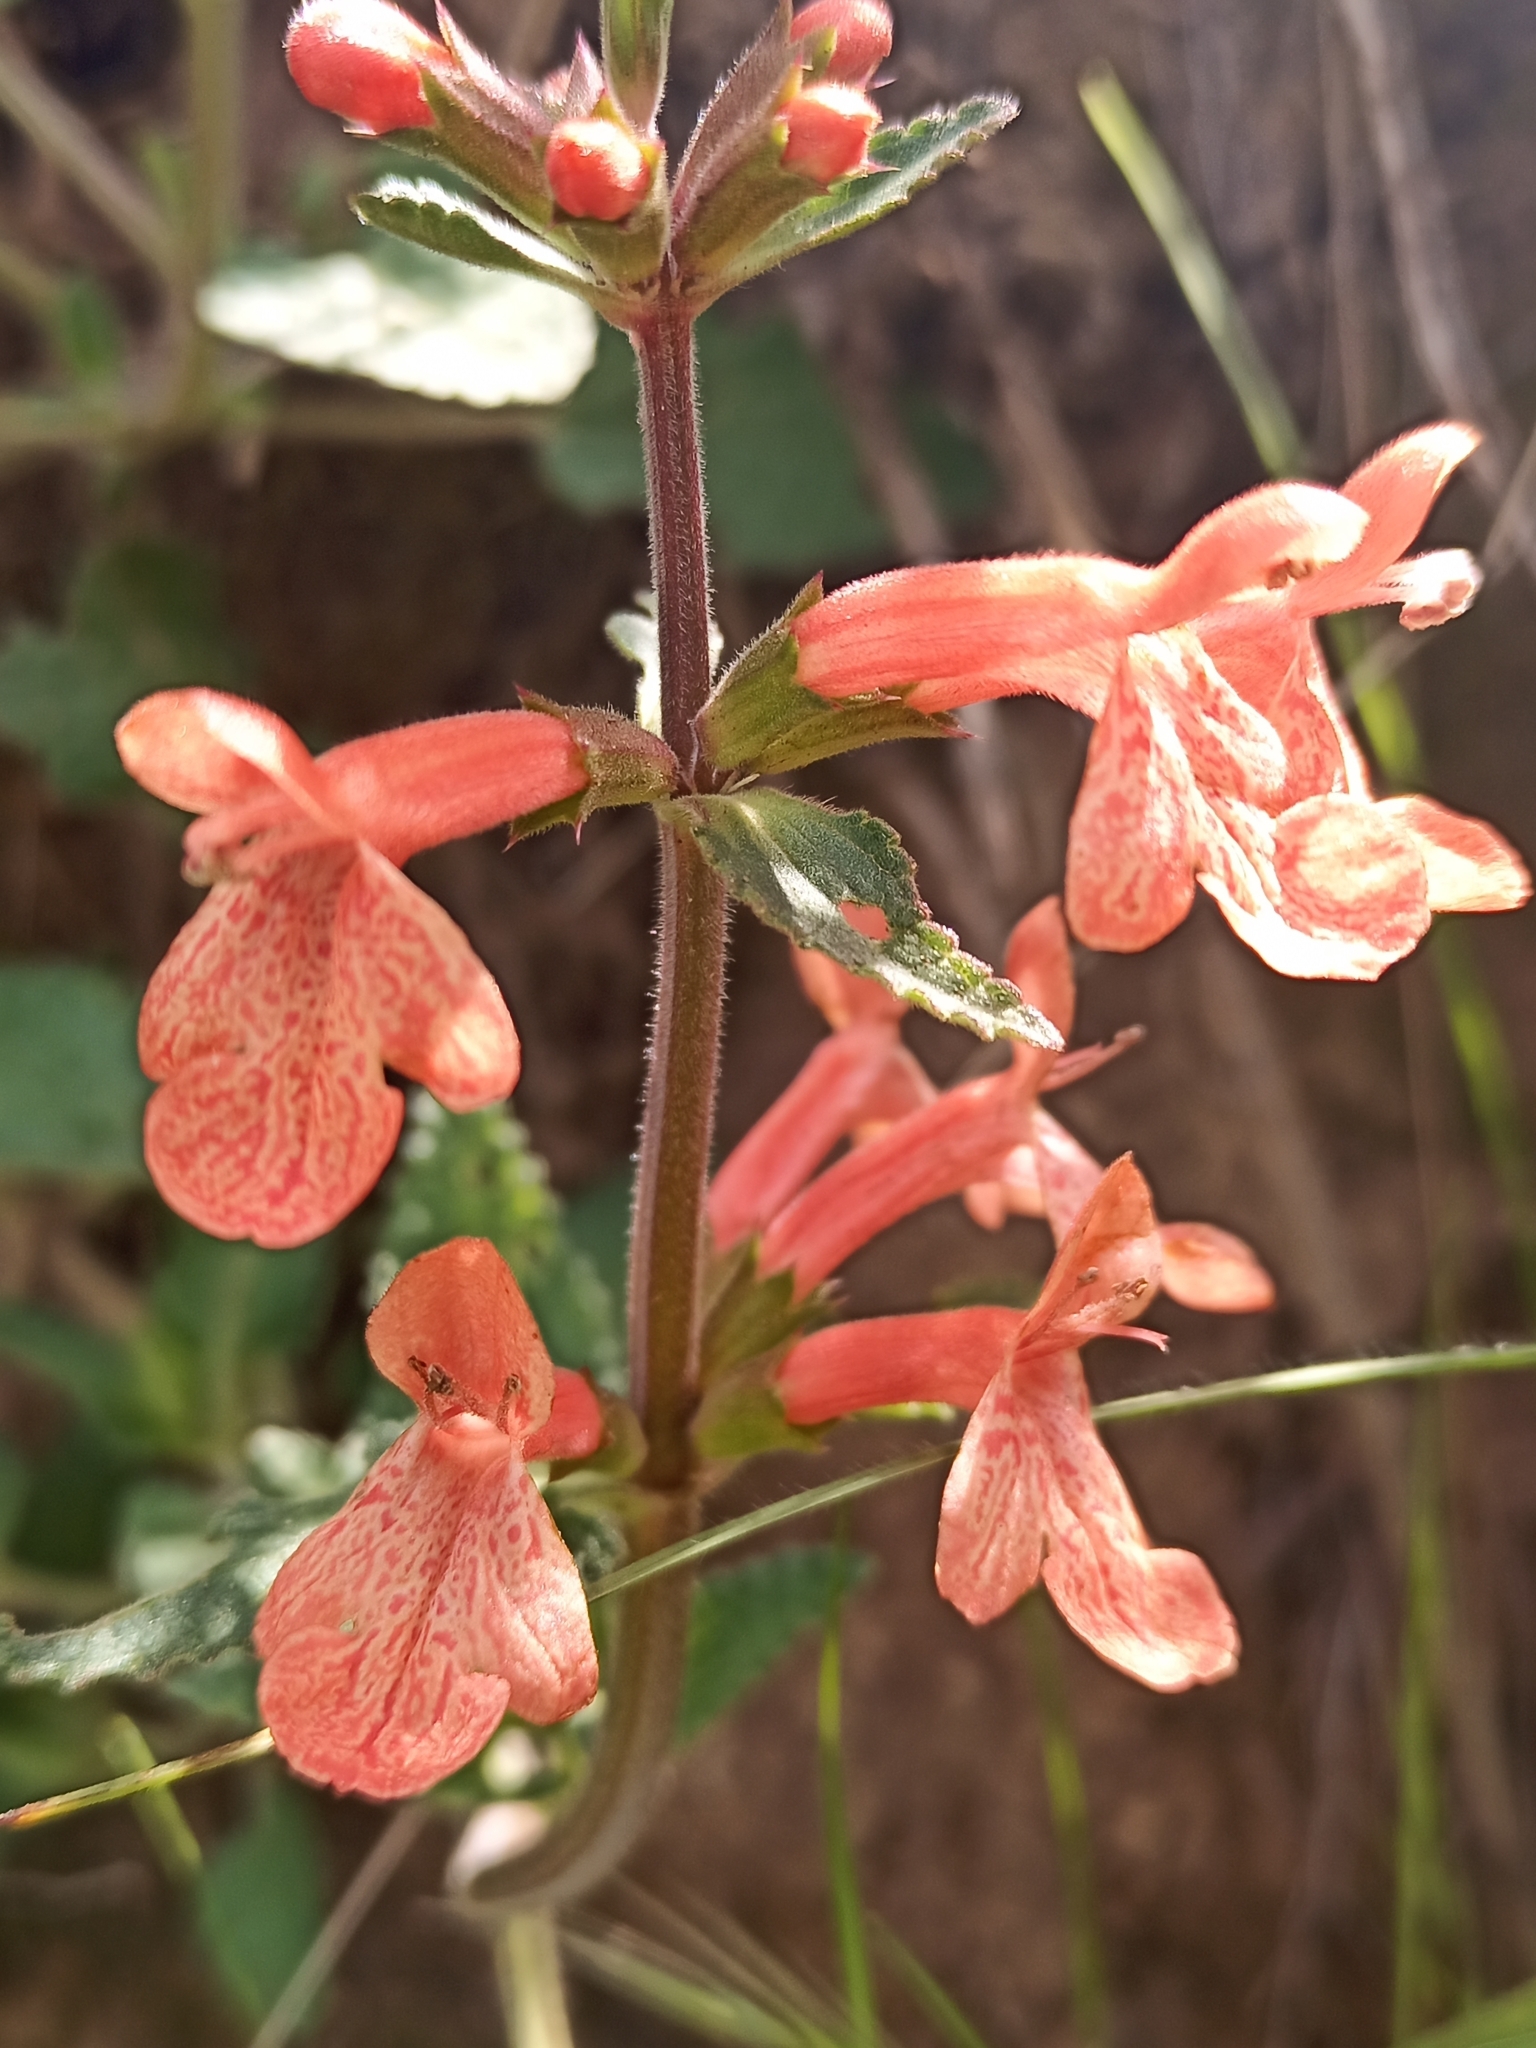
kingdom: Plantae
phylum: Tracheophyta
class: Magnoliopsida
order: Lamiales
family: Lamiaceae
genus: Stachys
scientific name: Stachys coccinea
